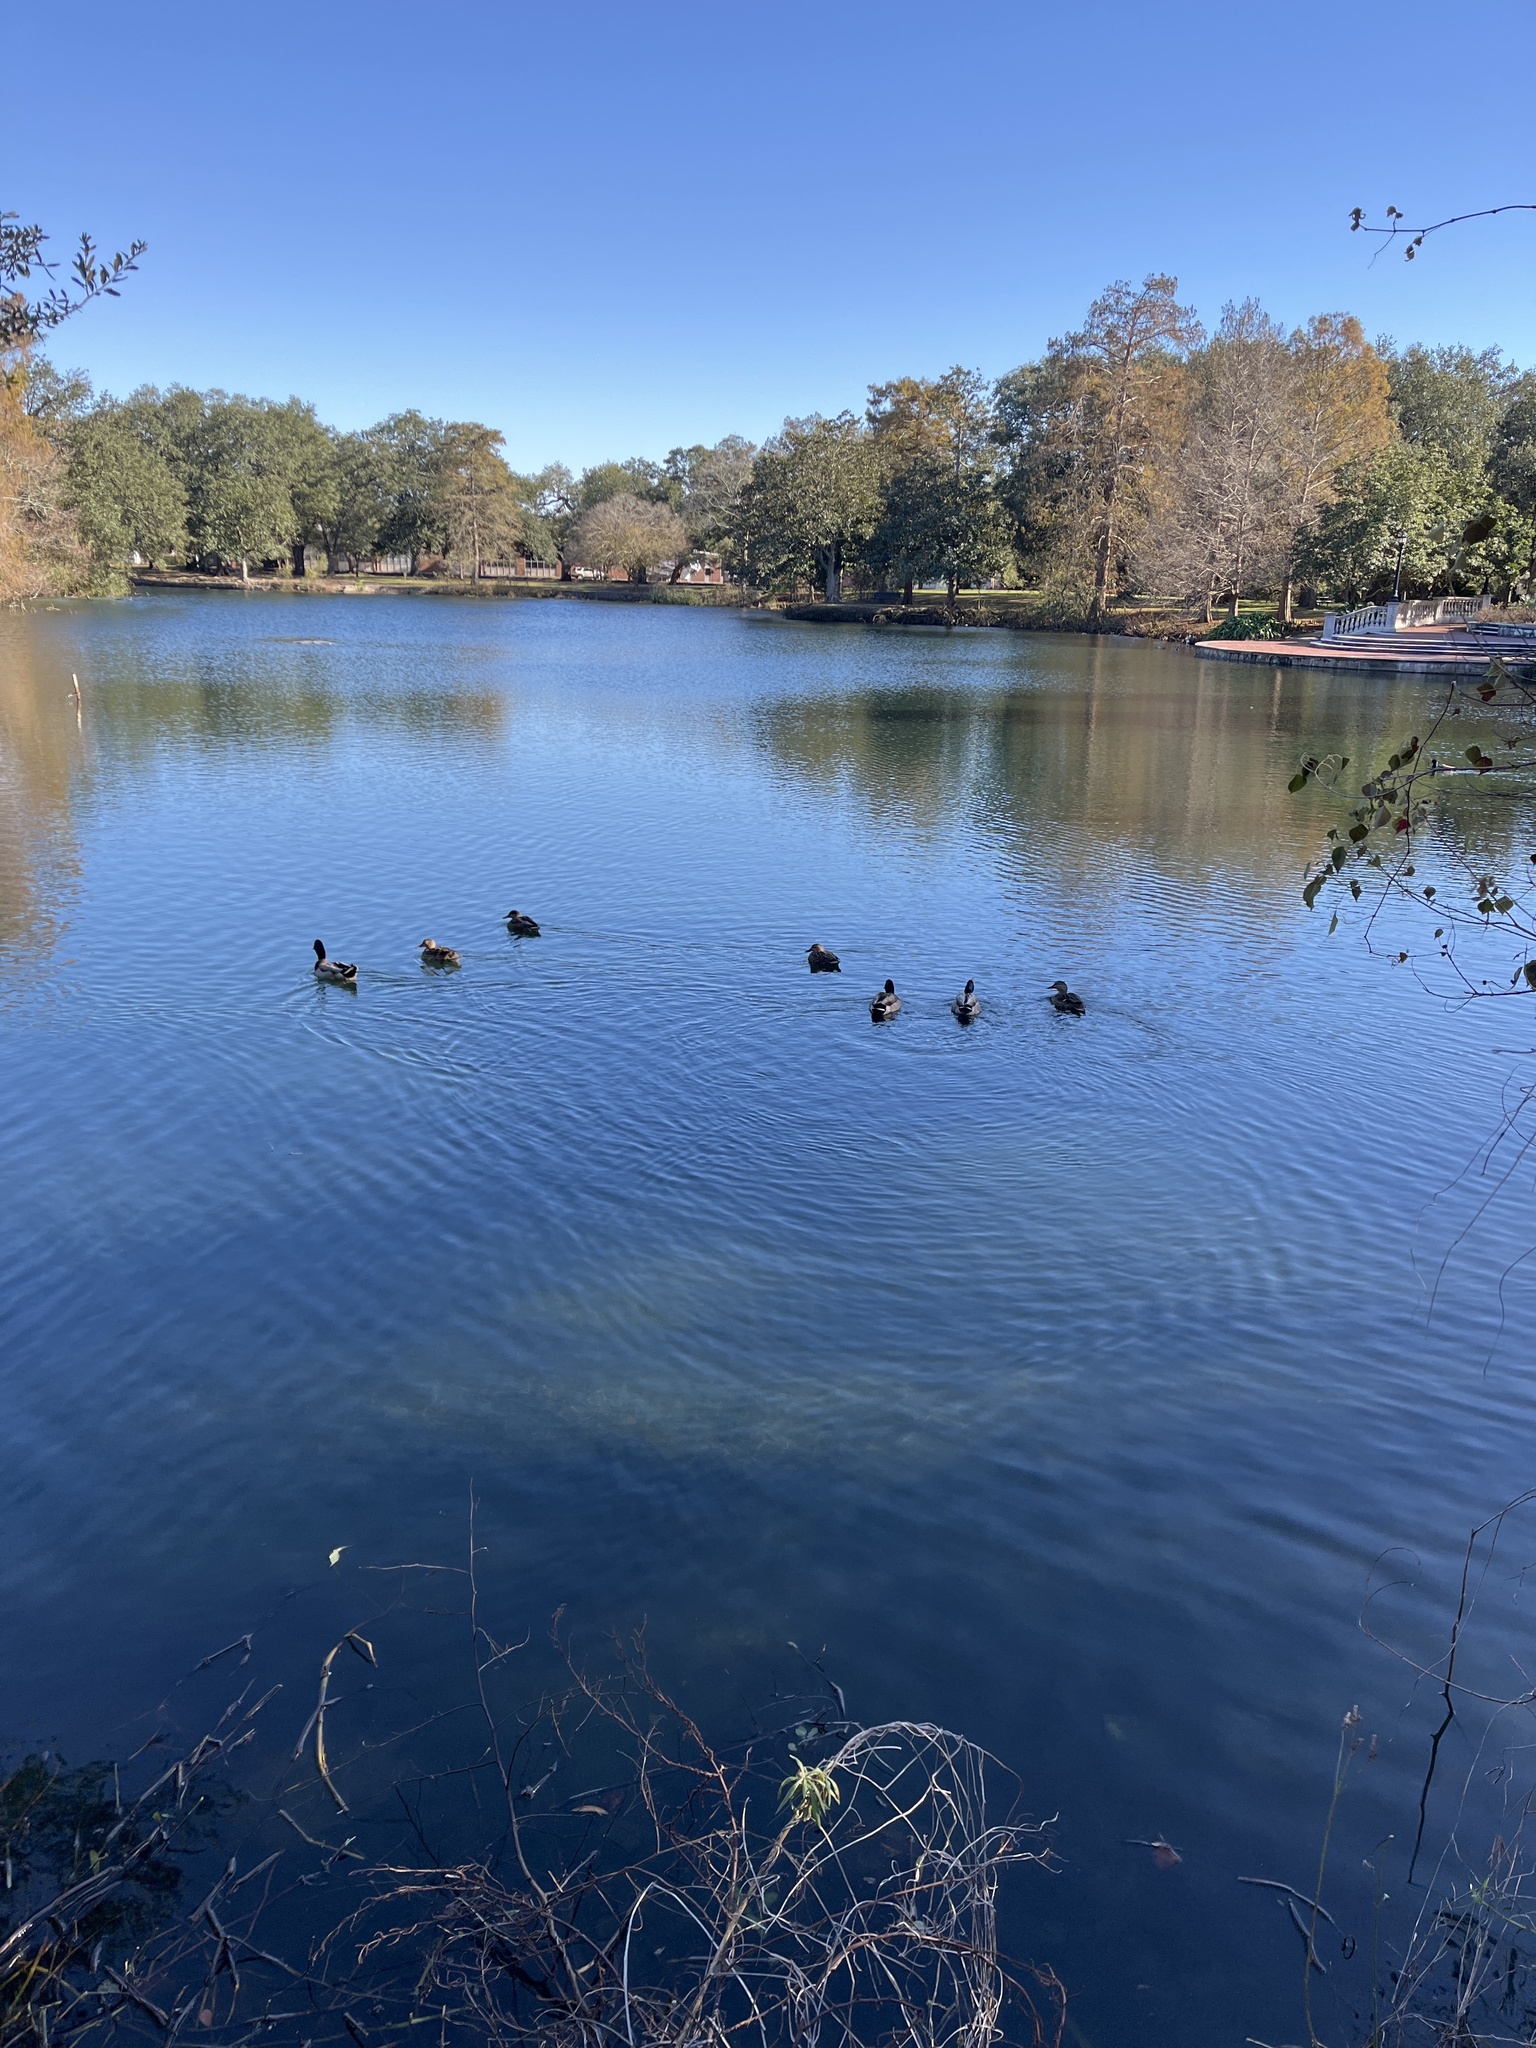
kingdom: Animalia
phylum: Chordata
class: Aves
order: Anseriformes
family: Anatidae
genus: Anas
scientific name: Anas platyrhynchos
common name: Mallard
